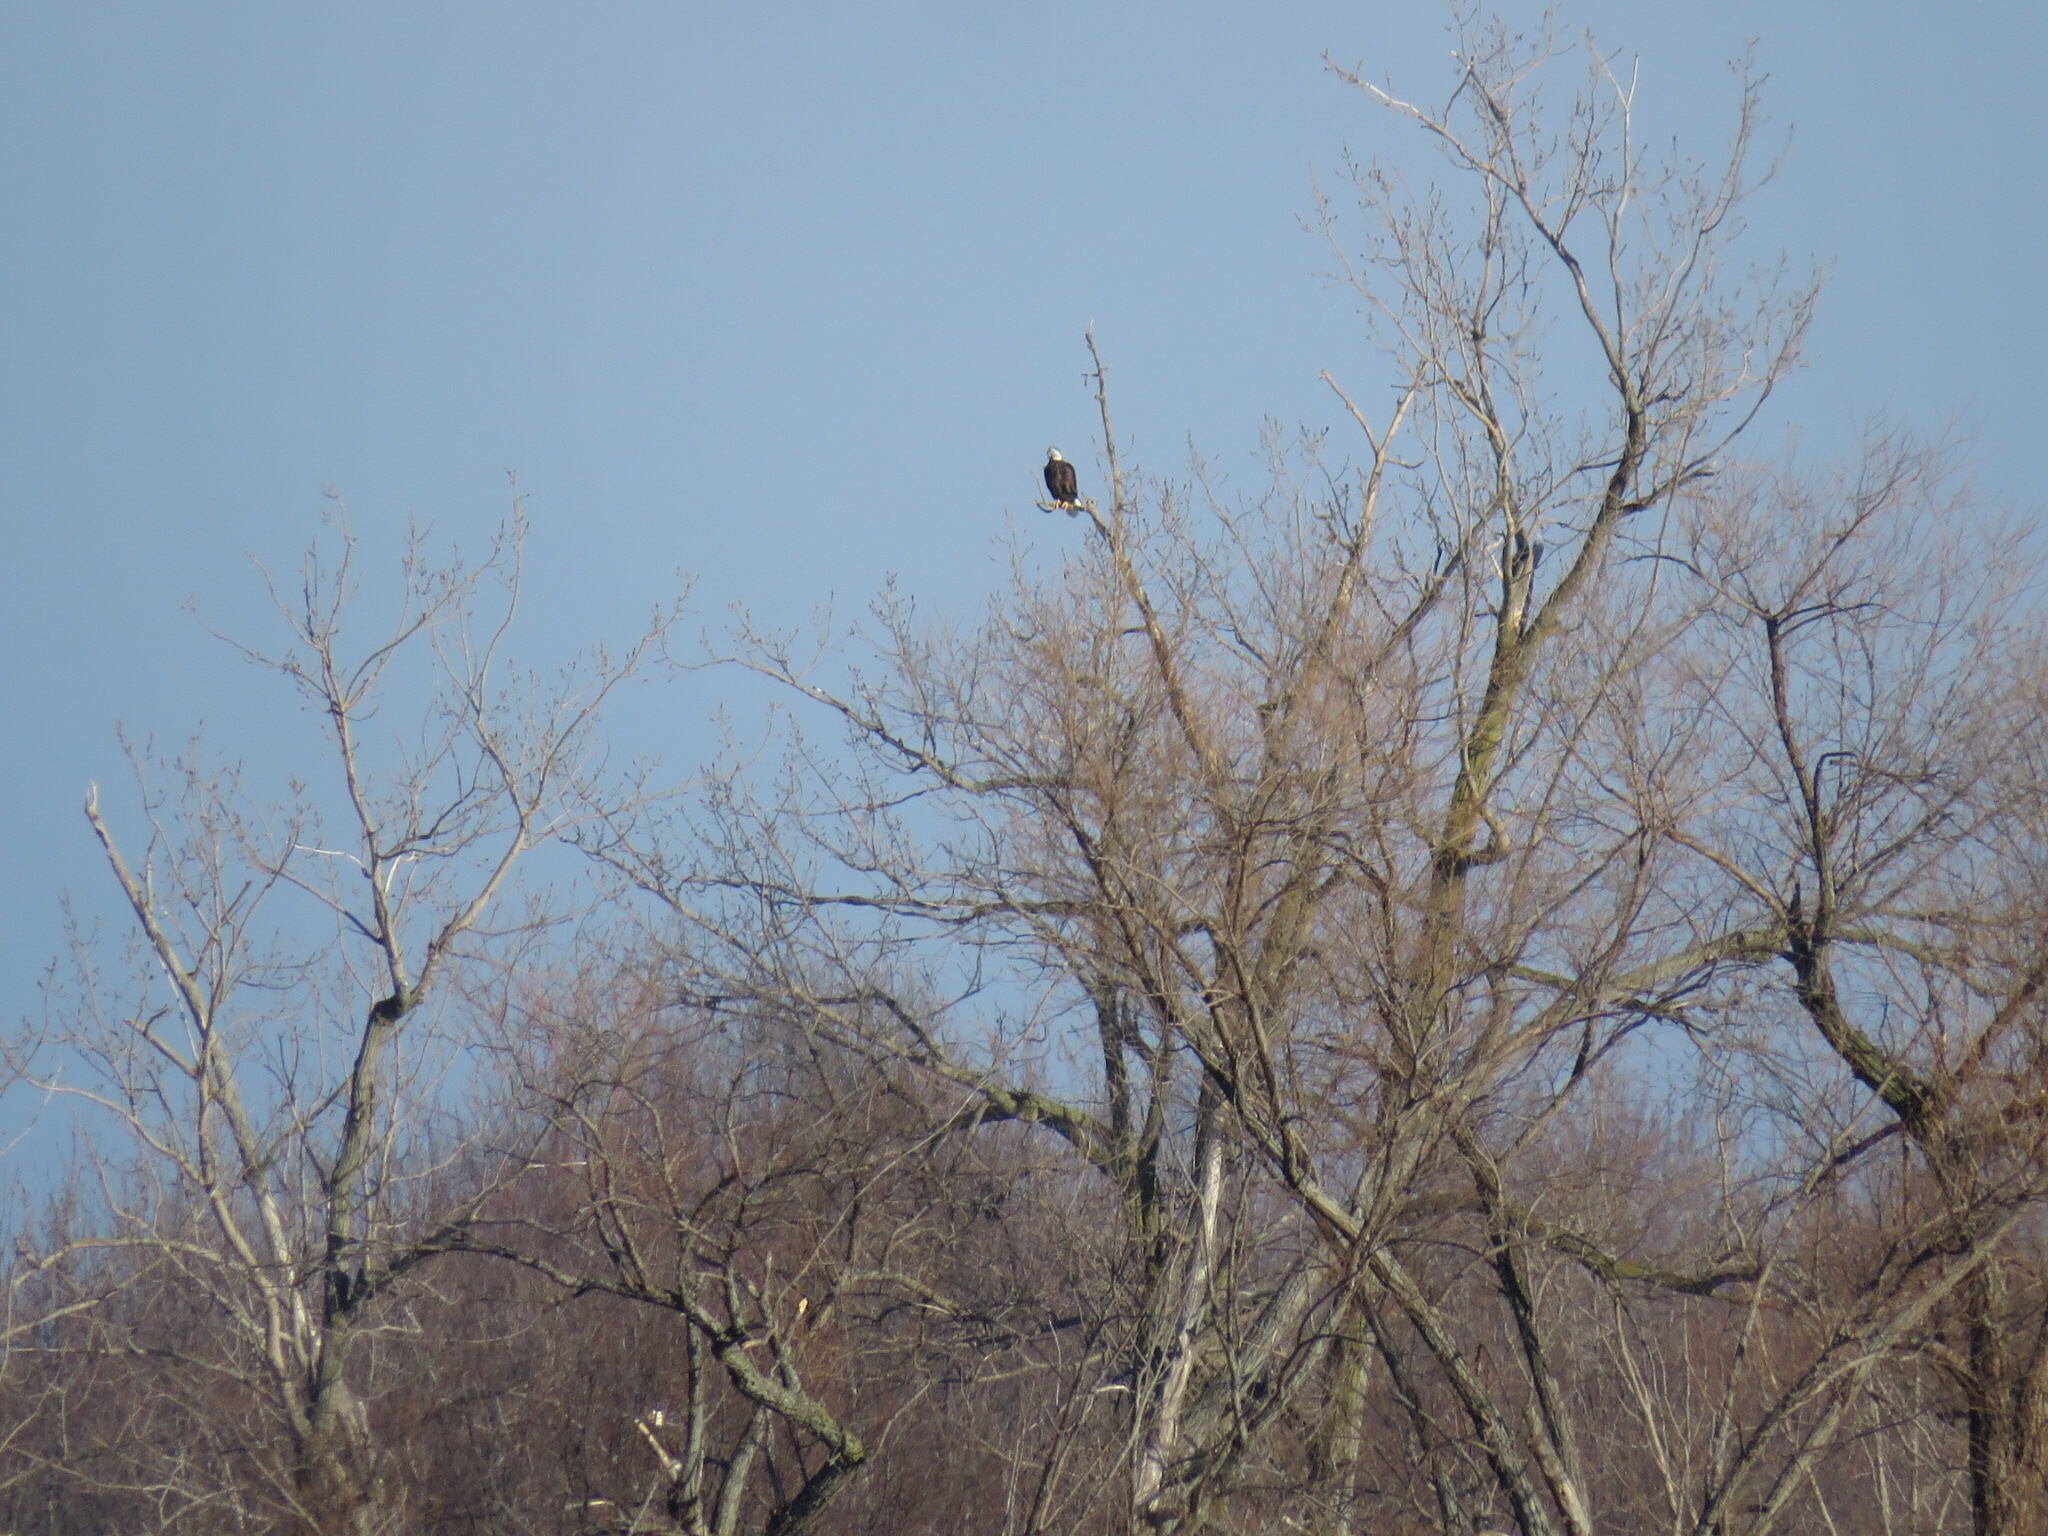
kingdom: Animalia
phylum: Chordata
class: Aves
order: Accipitriformes
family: Accipitridae
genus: Haliaeetus
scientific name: Haliaeetus leucocephalus
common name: Bald eagle
